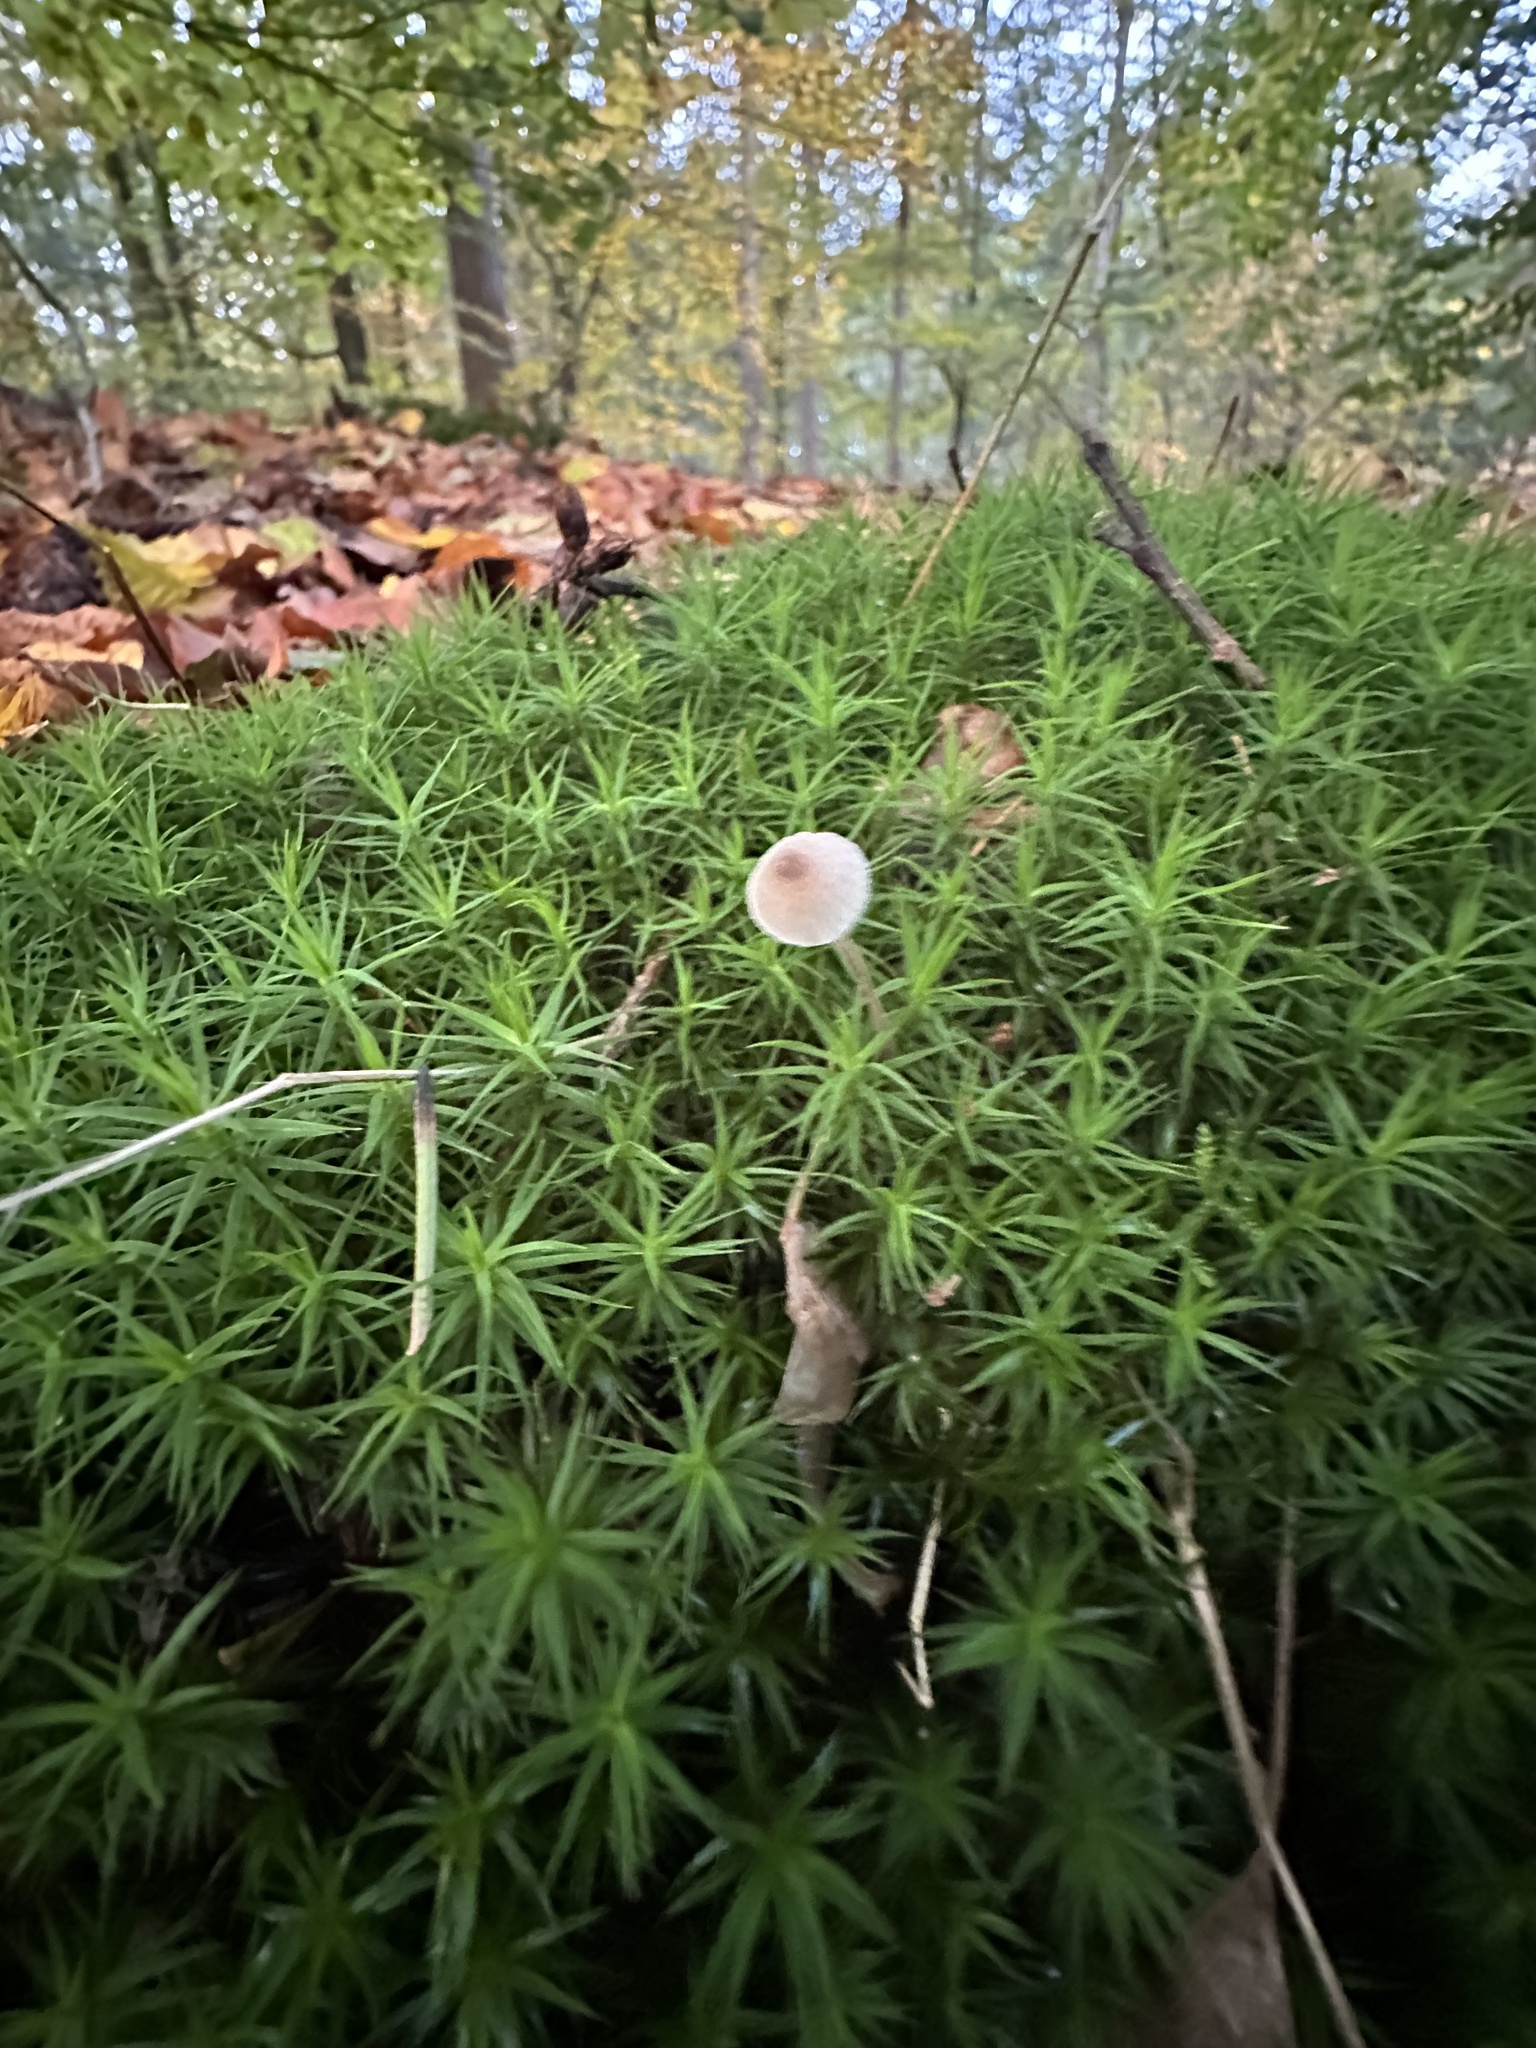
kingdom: Plantae
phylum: Bryophyta
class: Polytrichopsida
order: Polytrichales
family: Polytrichaceae
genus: Polytrichum
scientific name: Polytrichum formosum
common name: Bank haircap moss
